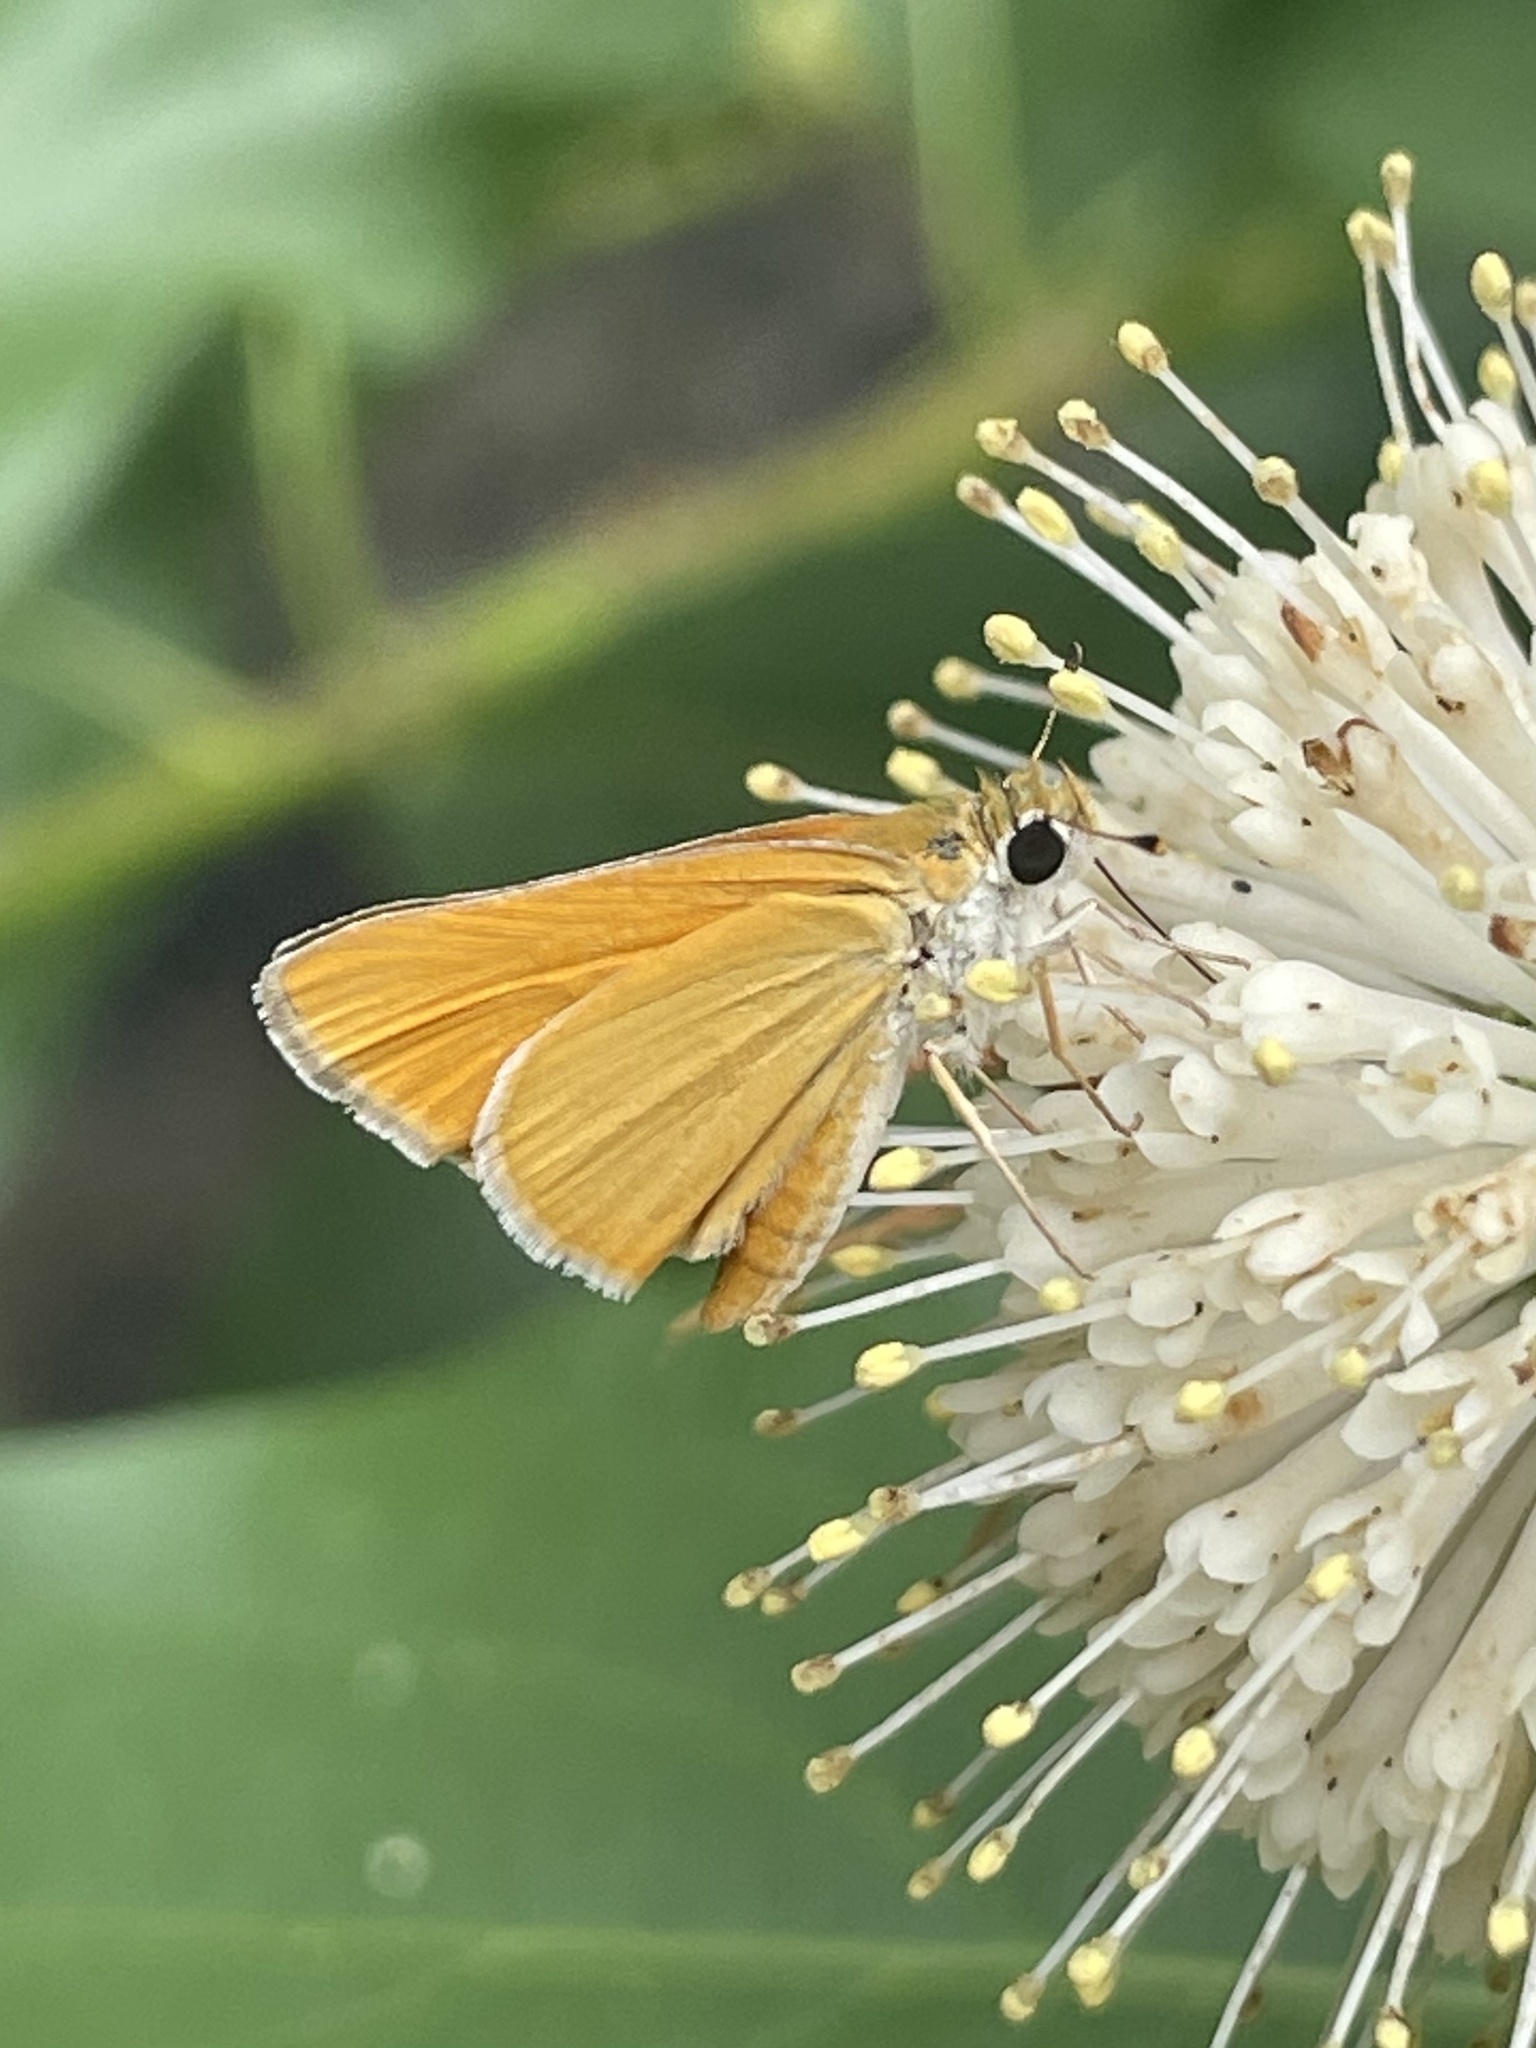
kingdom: Animalia
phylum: Arthropoda
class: Insecta
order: Lepidoptera
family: Hesperiidae
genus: Copaeodes
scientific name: Copaeodes aurantiaca
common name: Orange skipperling
